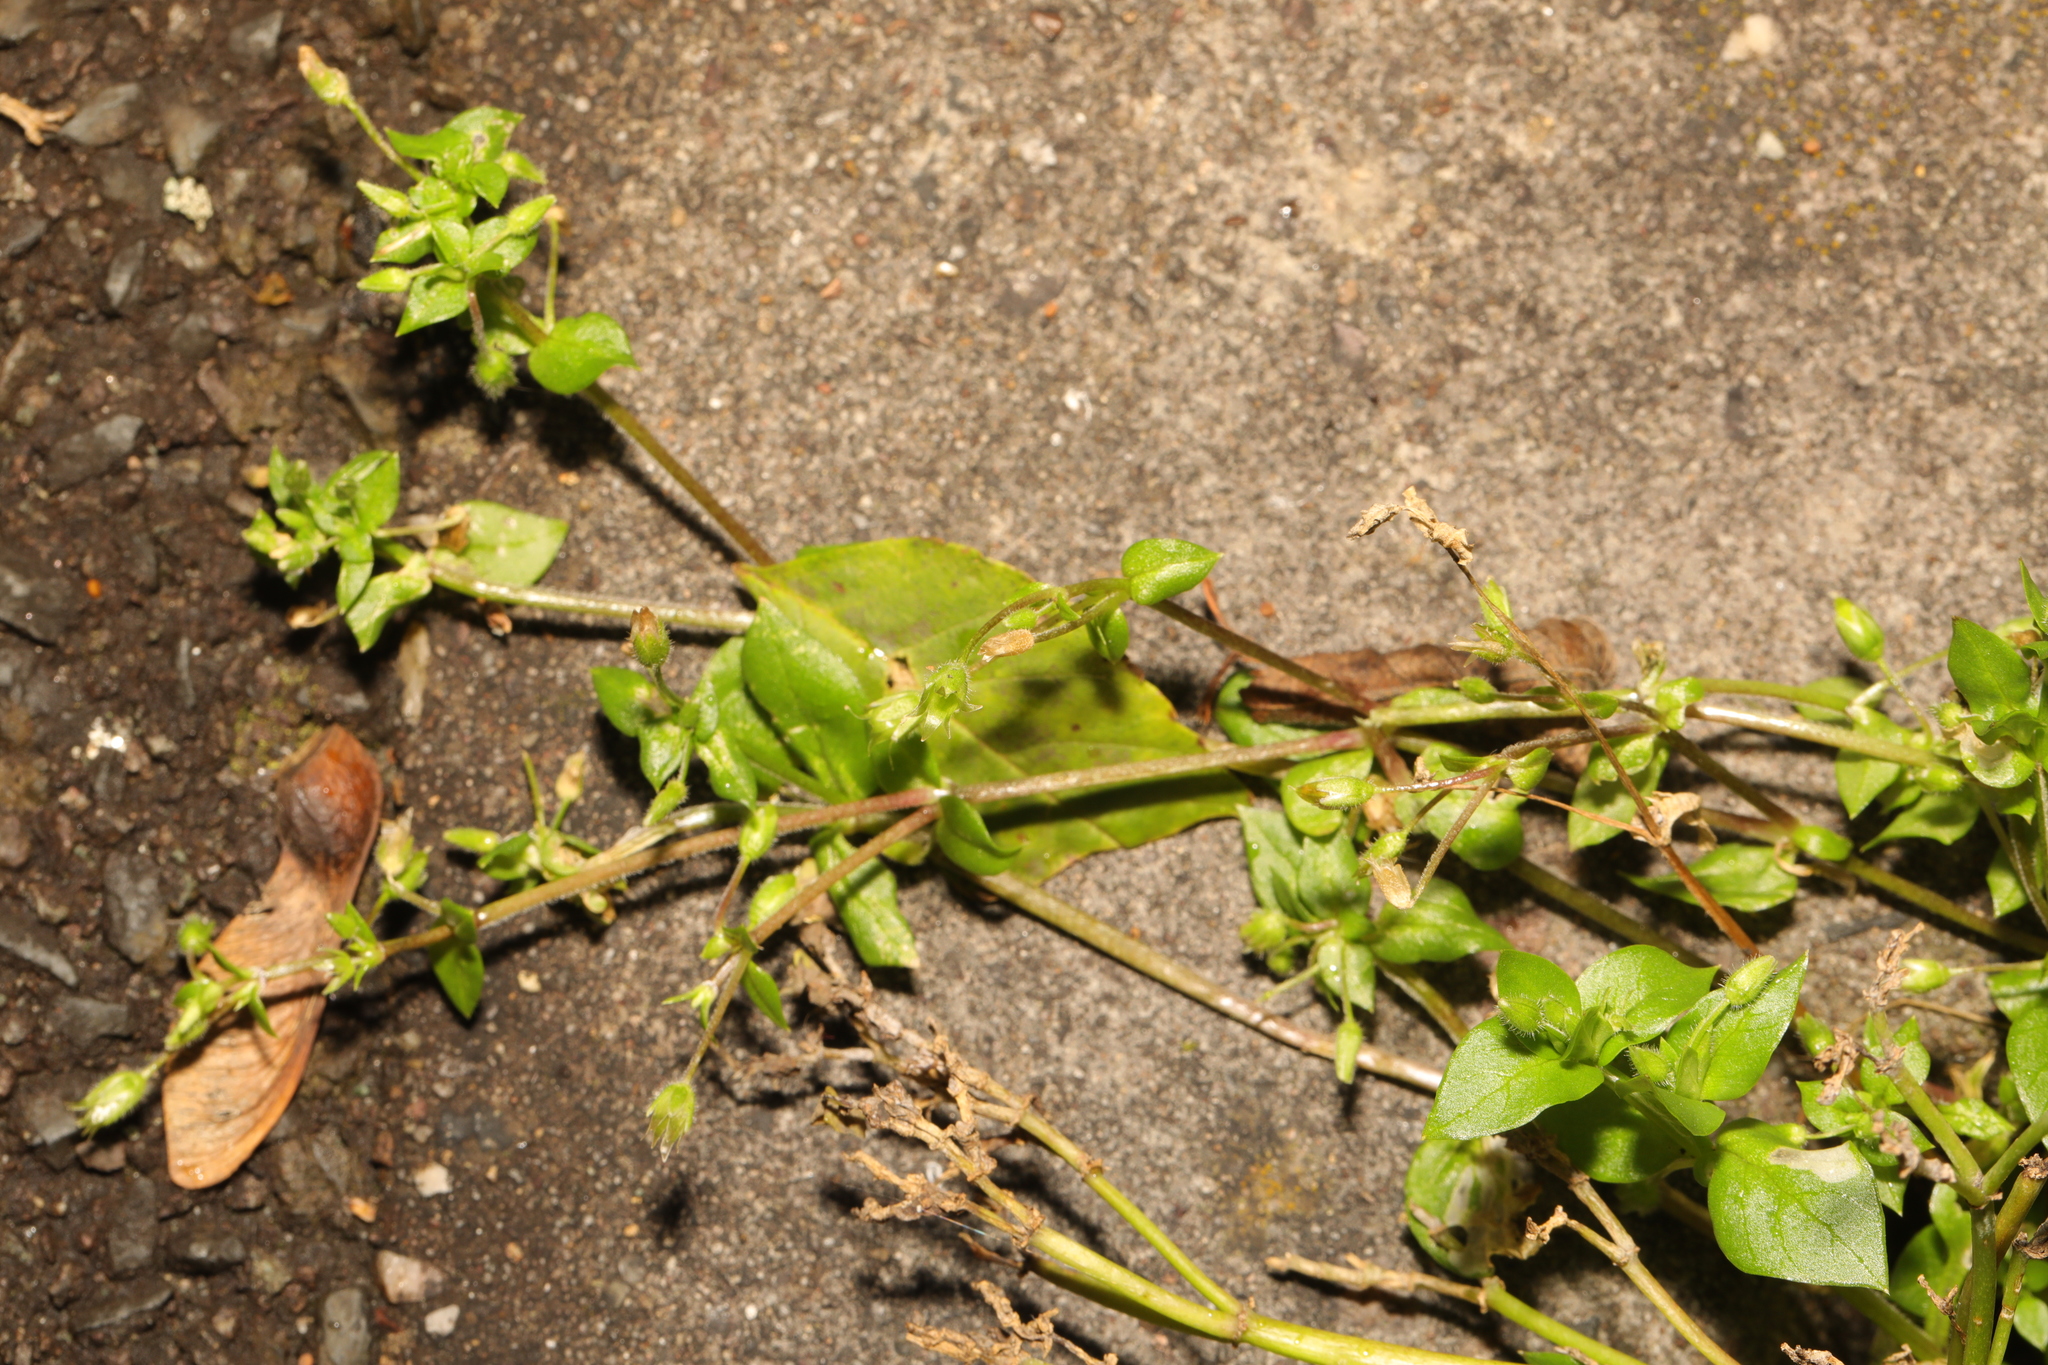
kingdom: Plantae
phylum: Tracheophyta
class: Magnoliopsida
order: Caryophyllales
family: Caryophyllaceae
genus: Stellaria
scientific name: Stellaria media
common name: Common chickweed
